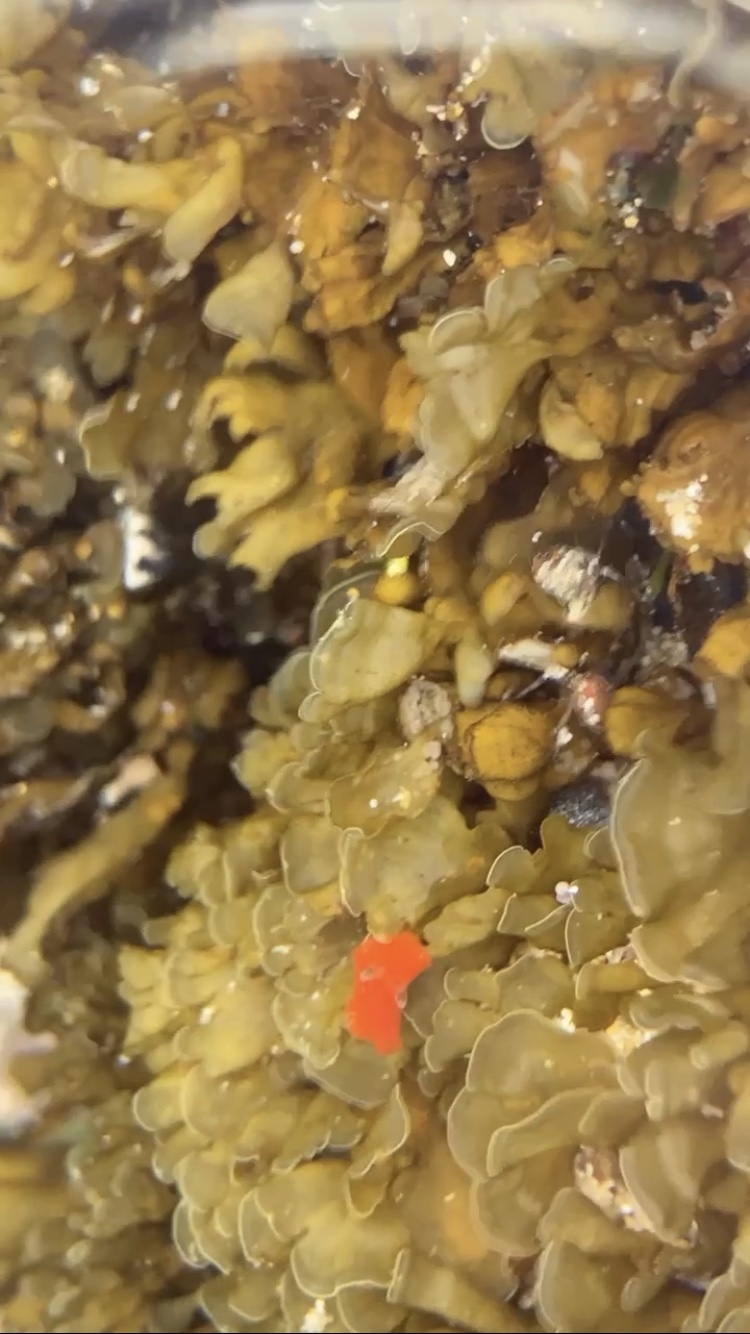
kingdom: Animalia
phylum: Mollusca
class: Gastropoda
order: Nudibranchia
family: Discodorididae
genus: Rostanga
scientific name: Rostanga arbutus
